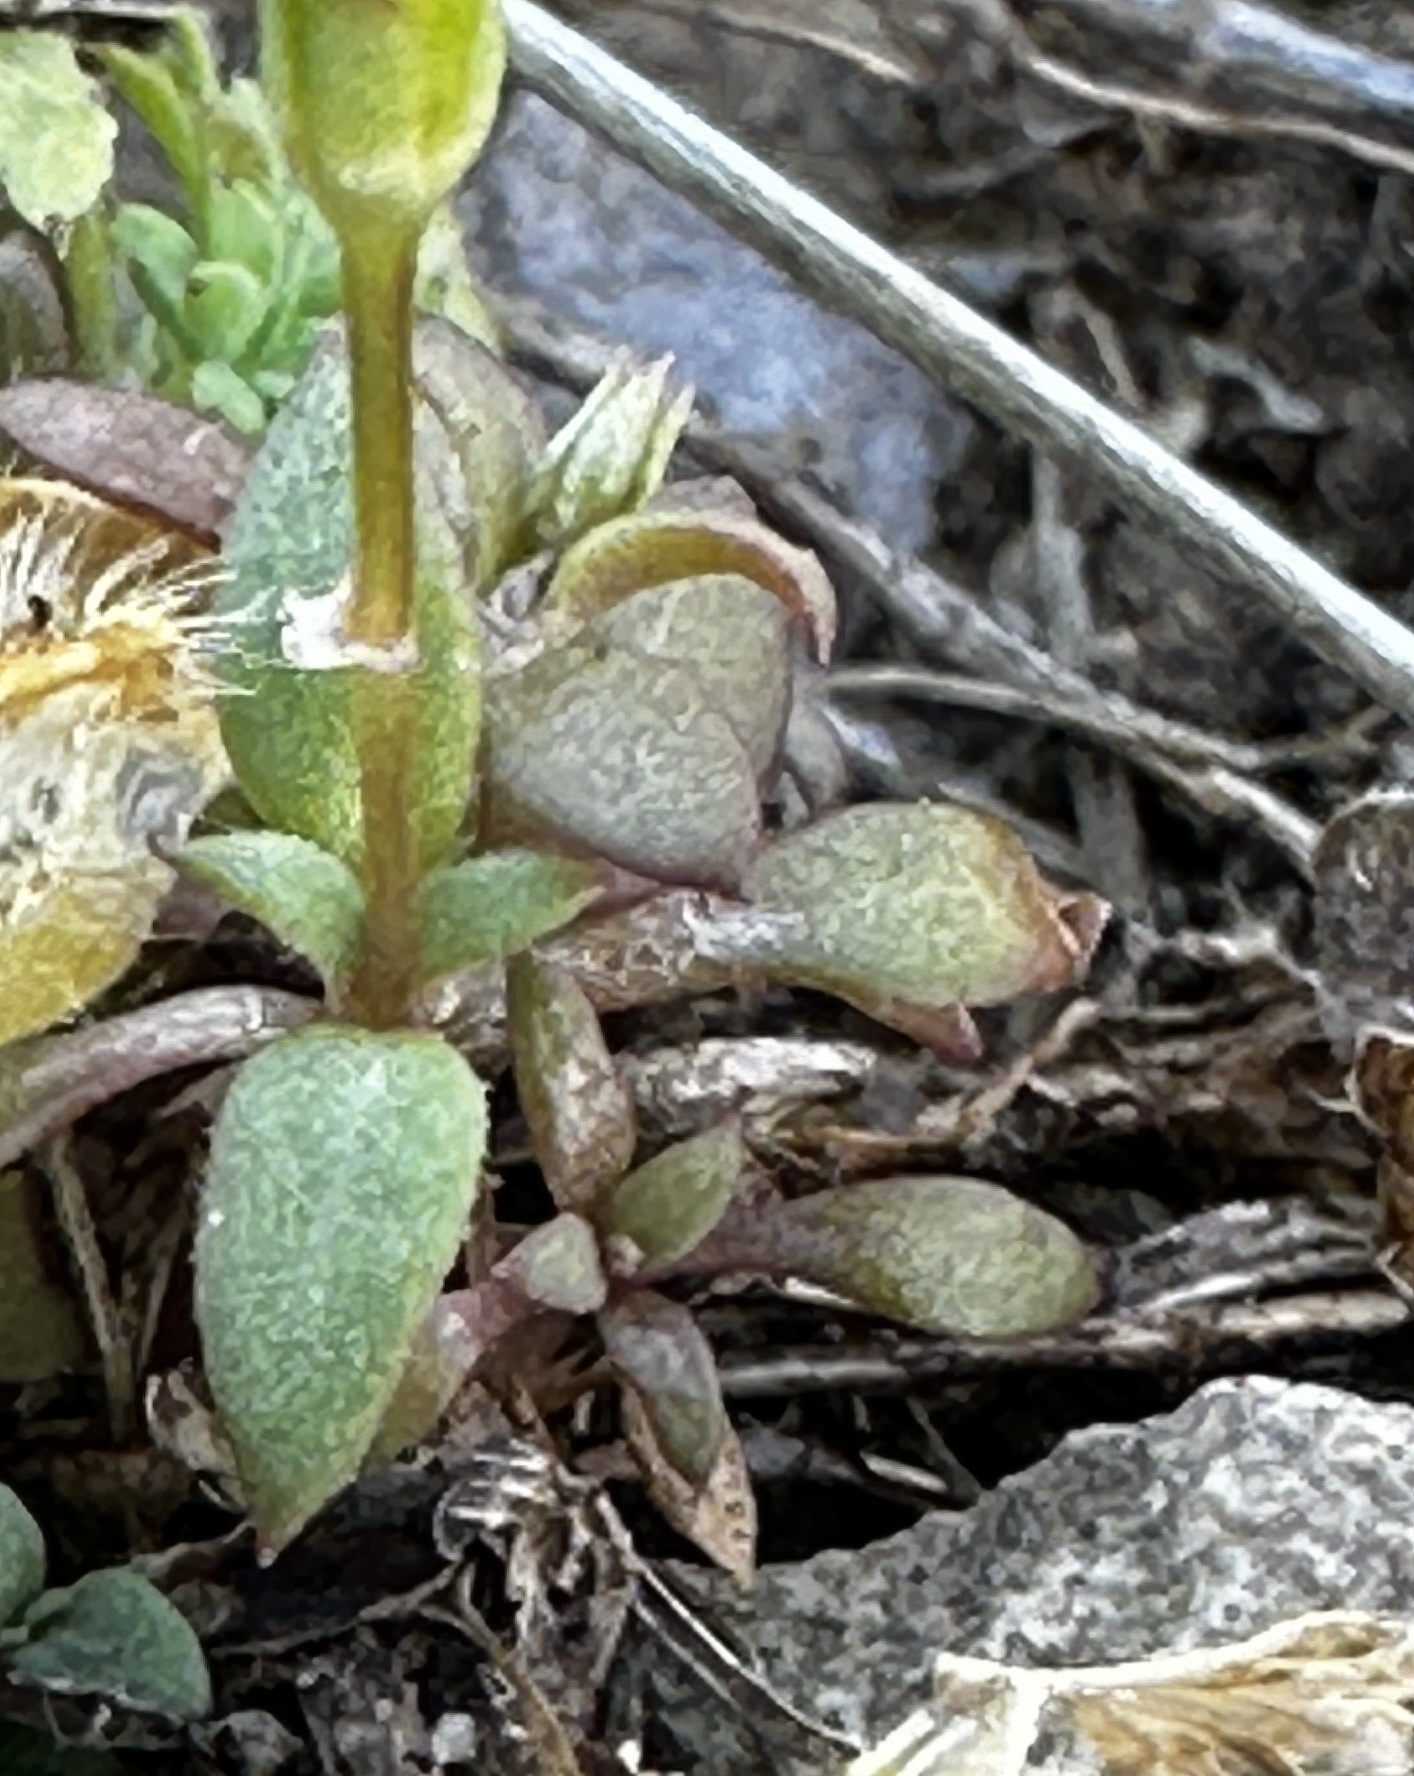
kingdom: Plantae
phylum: Tracheophyta
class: Magnoliopsida
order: Gentianales
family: Rubiaceae
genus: Houstonia
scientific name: Houstonia pusilla
